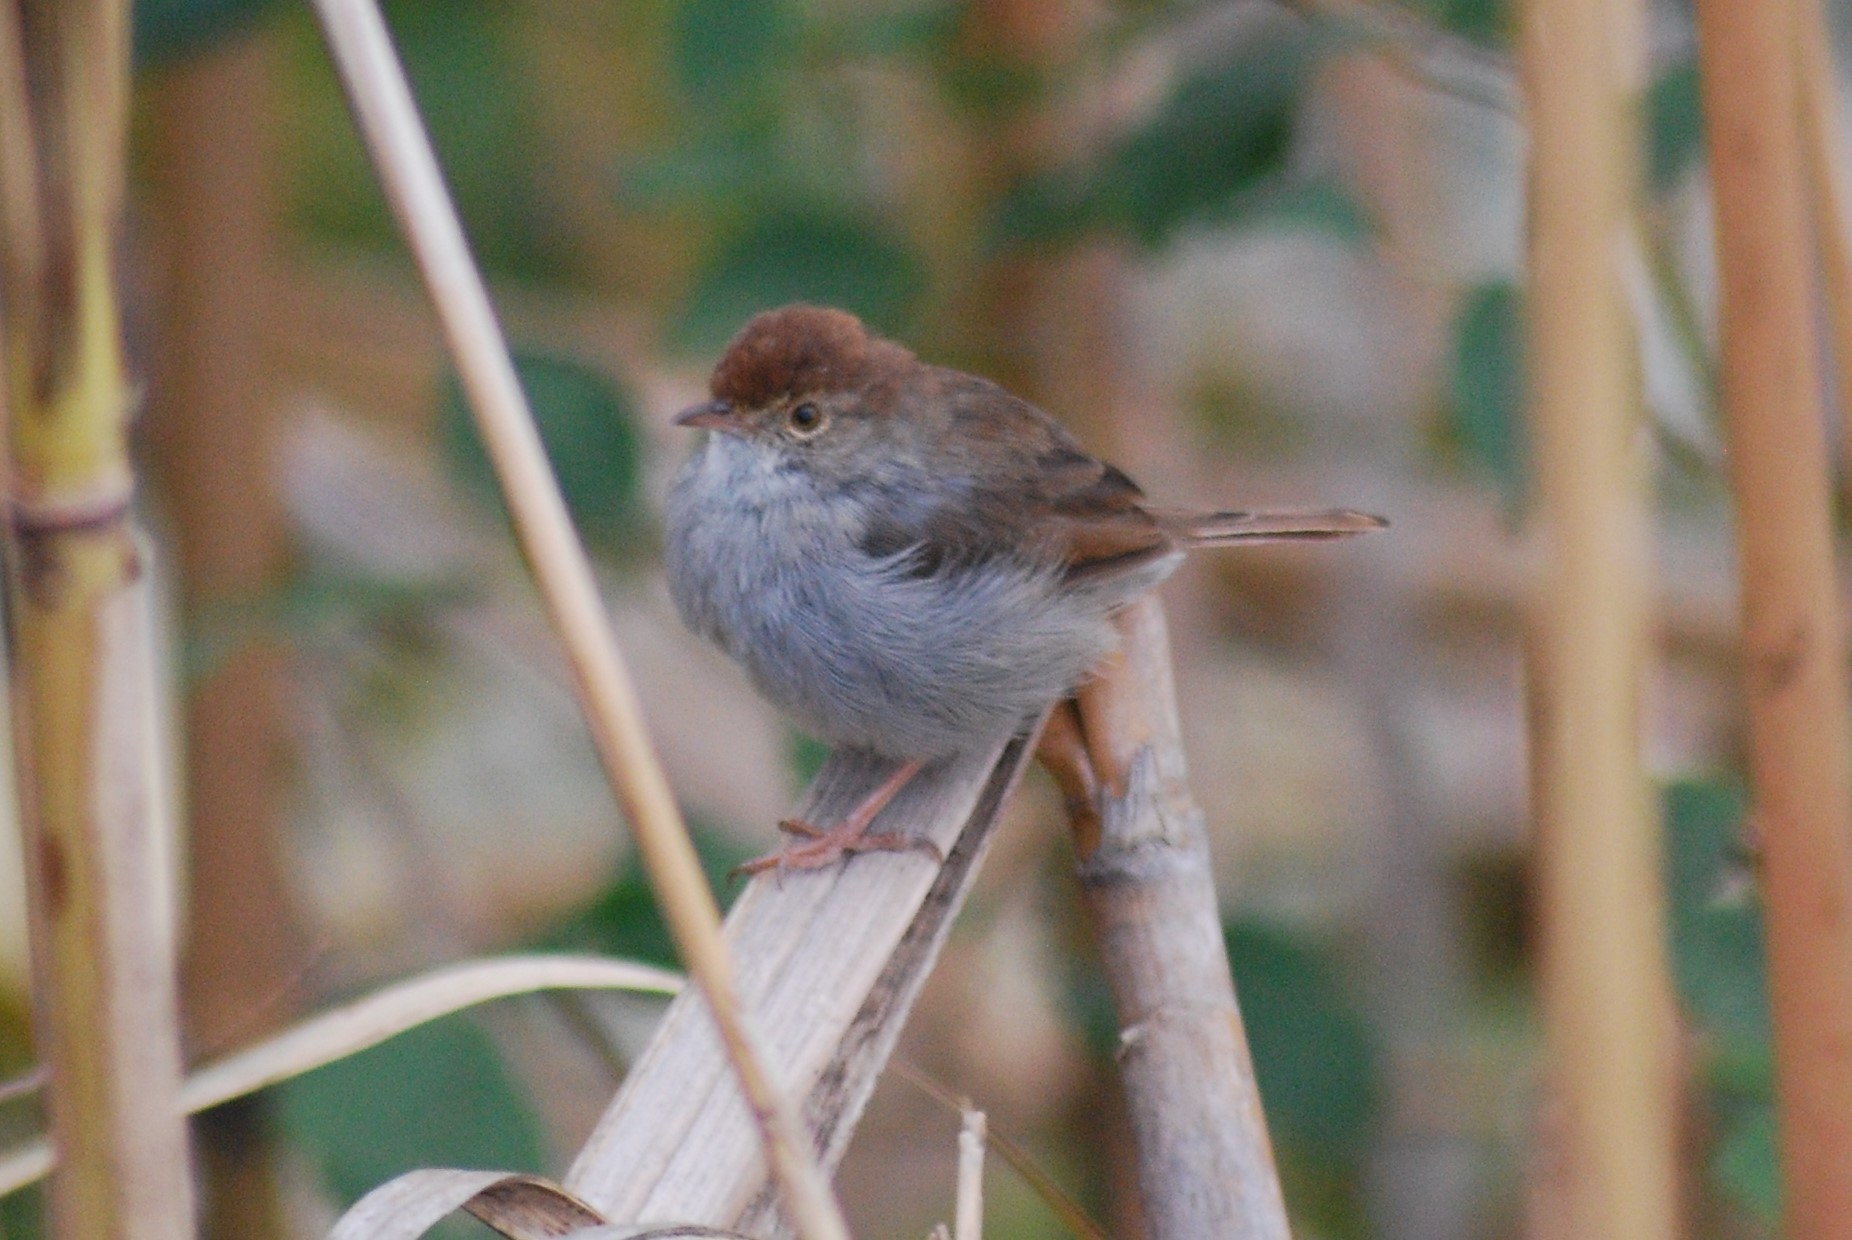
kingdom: Animalia
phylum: Chordata
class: Aves
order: Passeriformes
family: Cisticolidae
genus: Cisticola
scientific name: Cisticola fulvicapilla
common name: Neddicky
